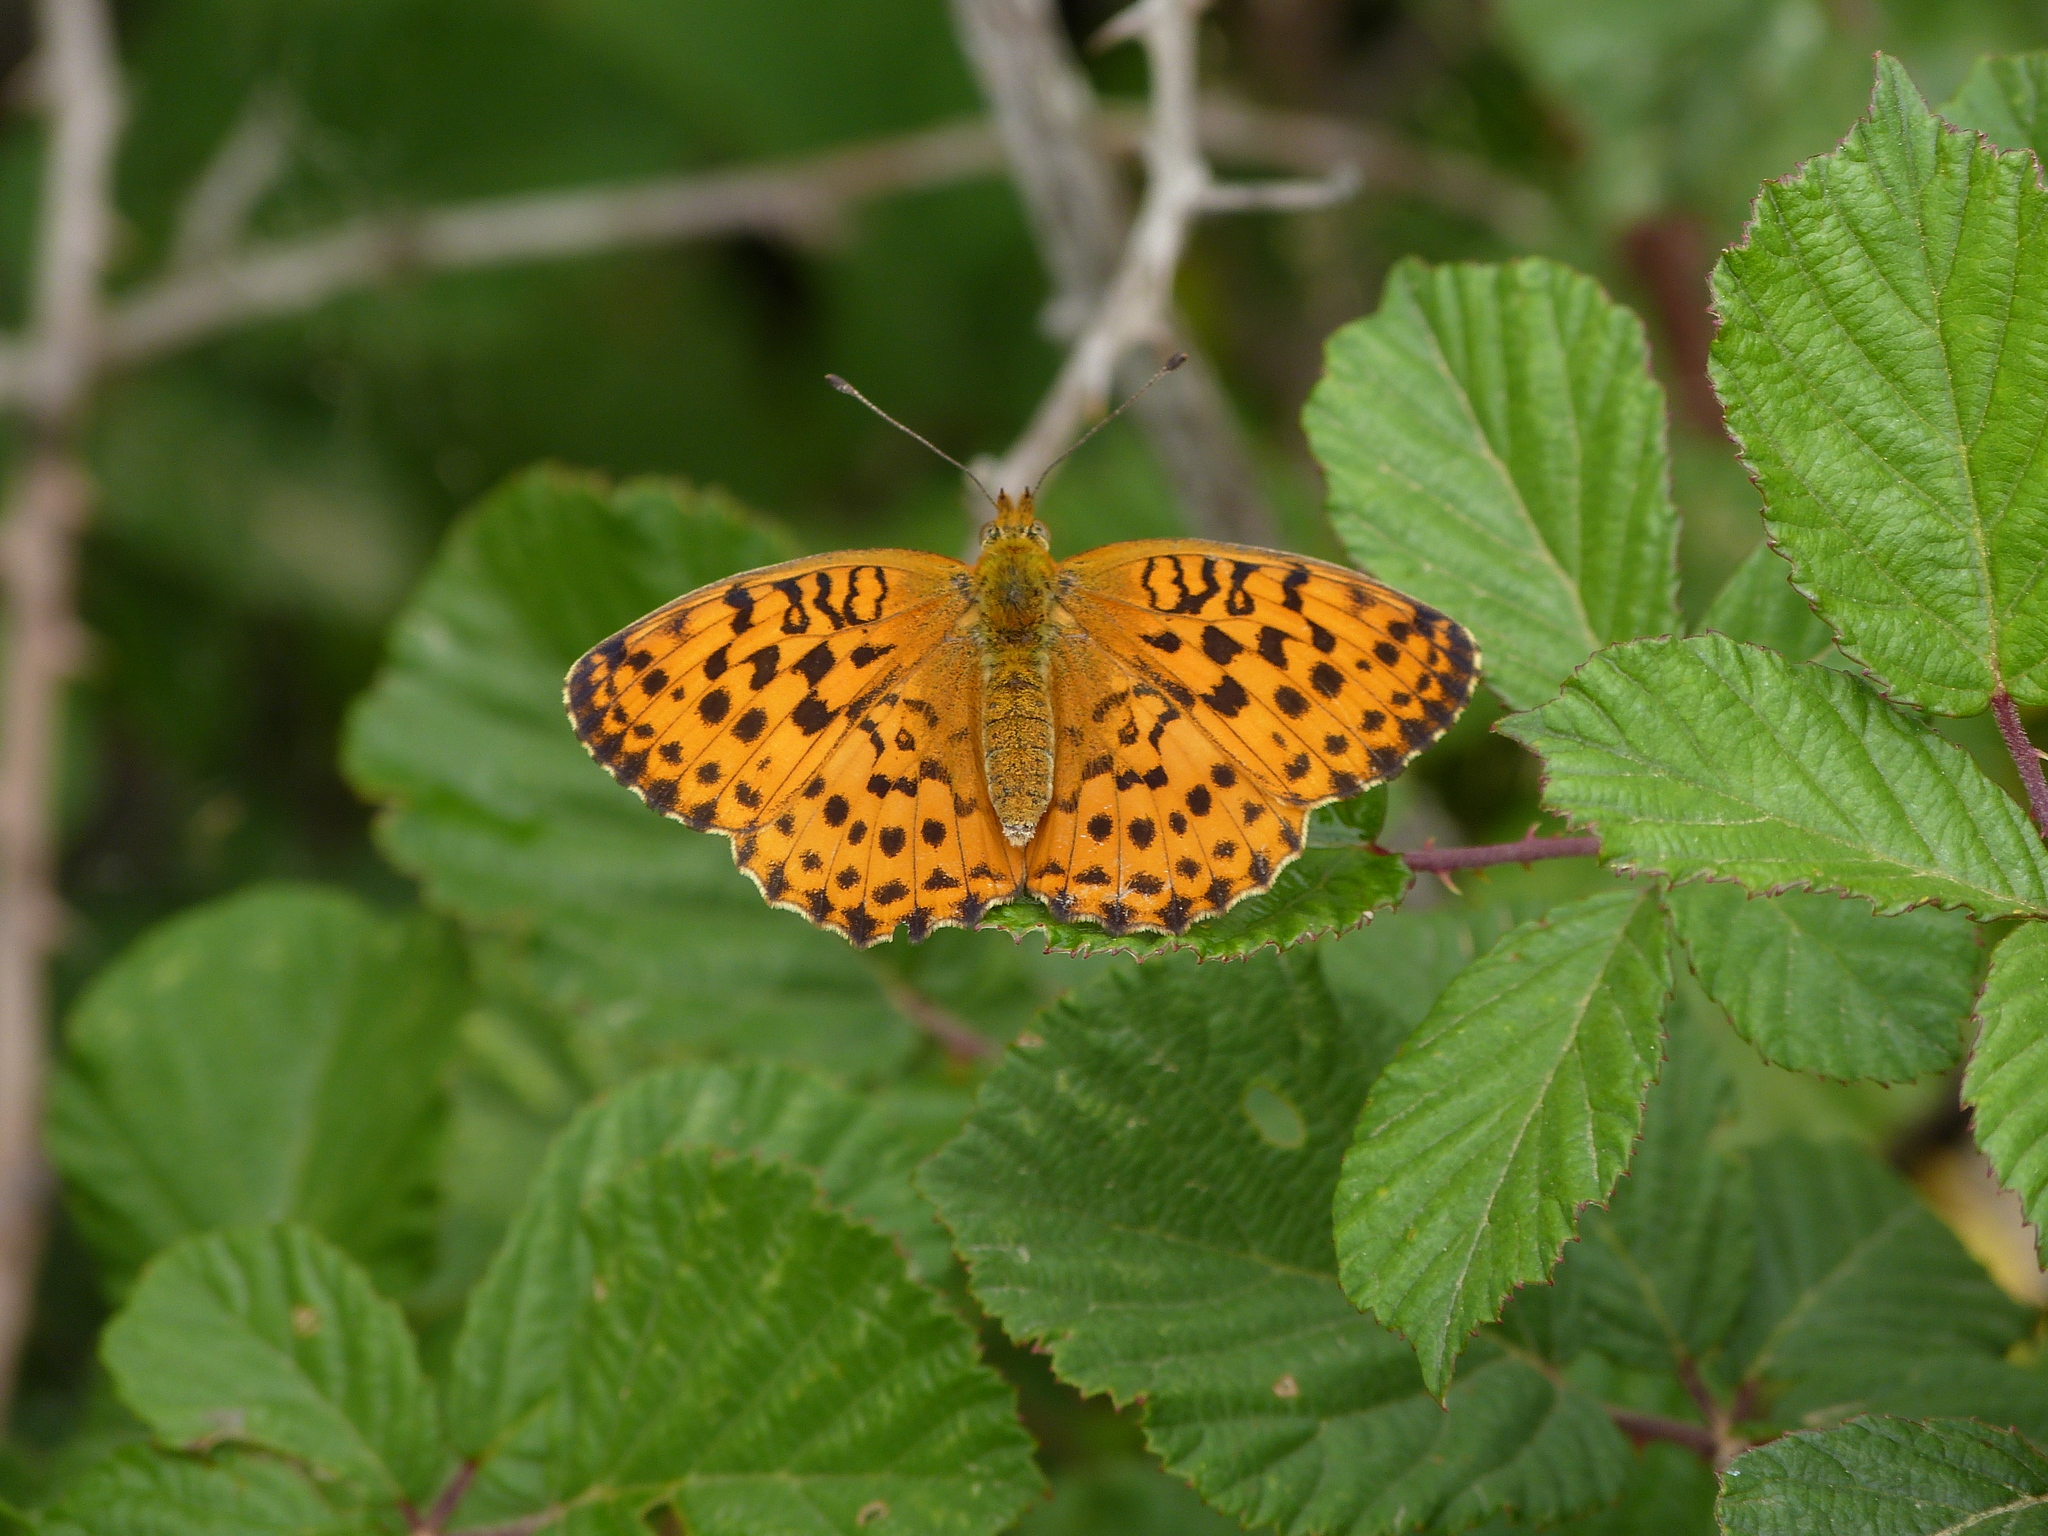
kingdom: Animalia
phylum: Arthropoda
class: Insecta
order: Lepidoptera
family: Nymphalidae
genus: Brenthis
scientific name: Brenthis daphne
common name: Marbled fritillary
